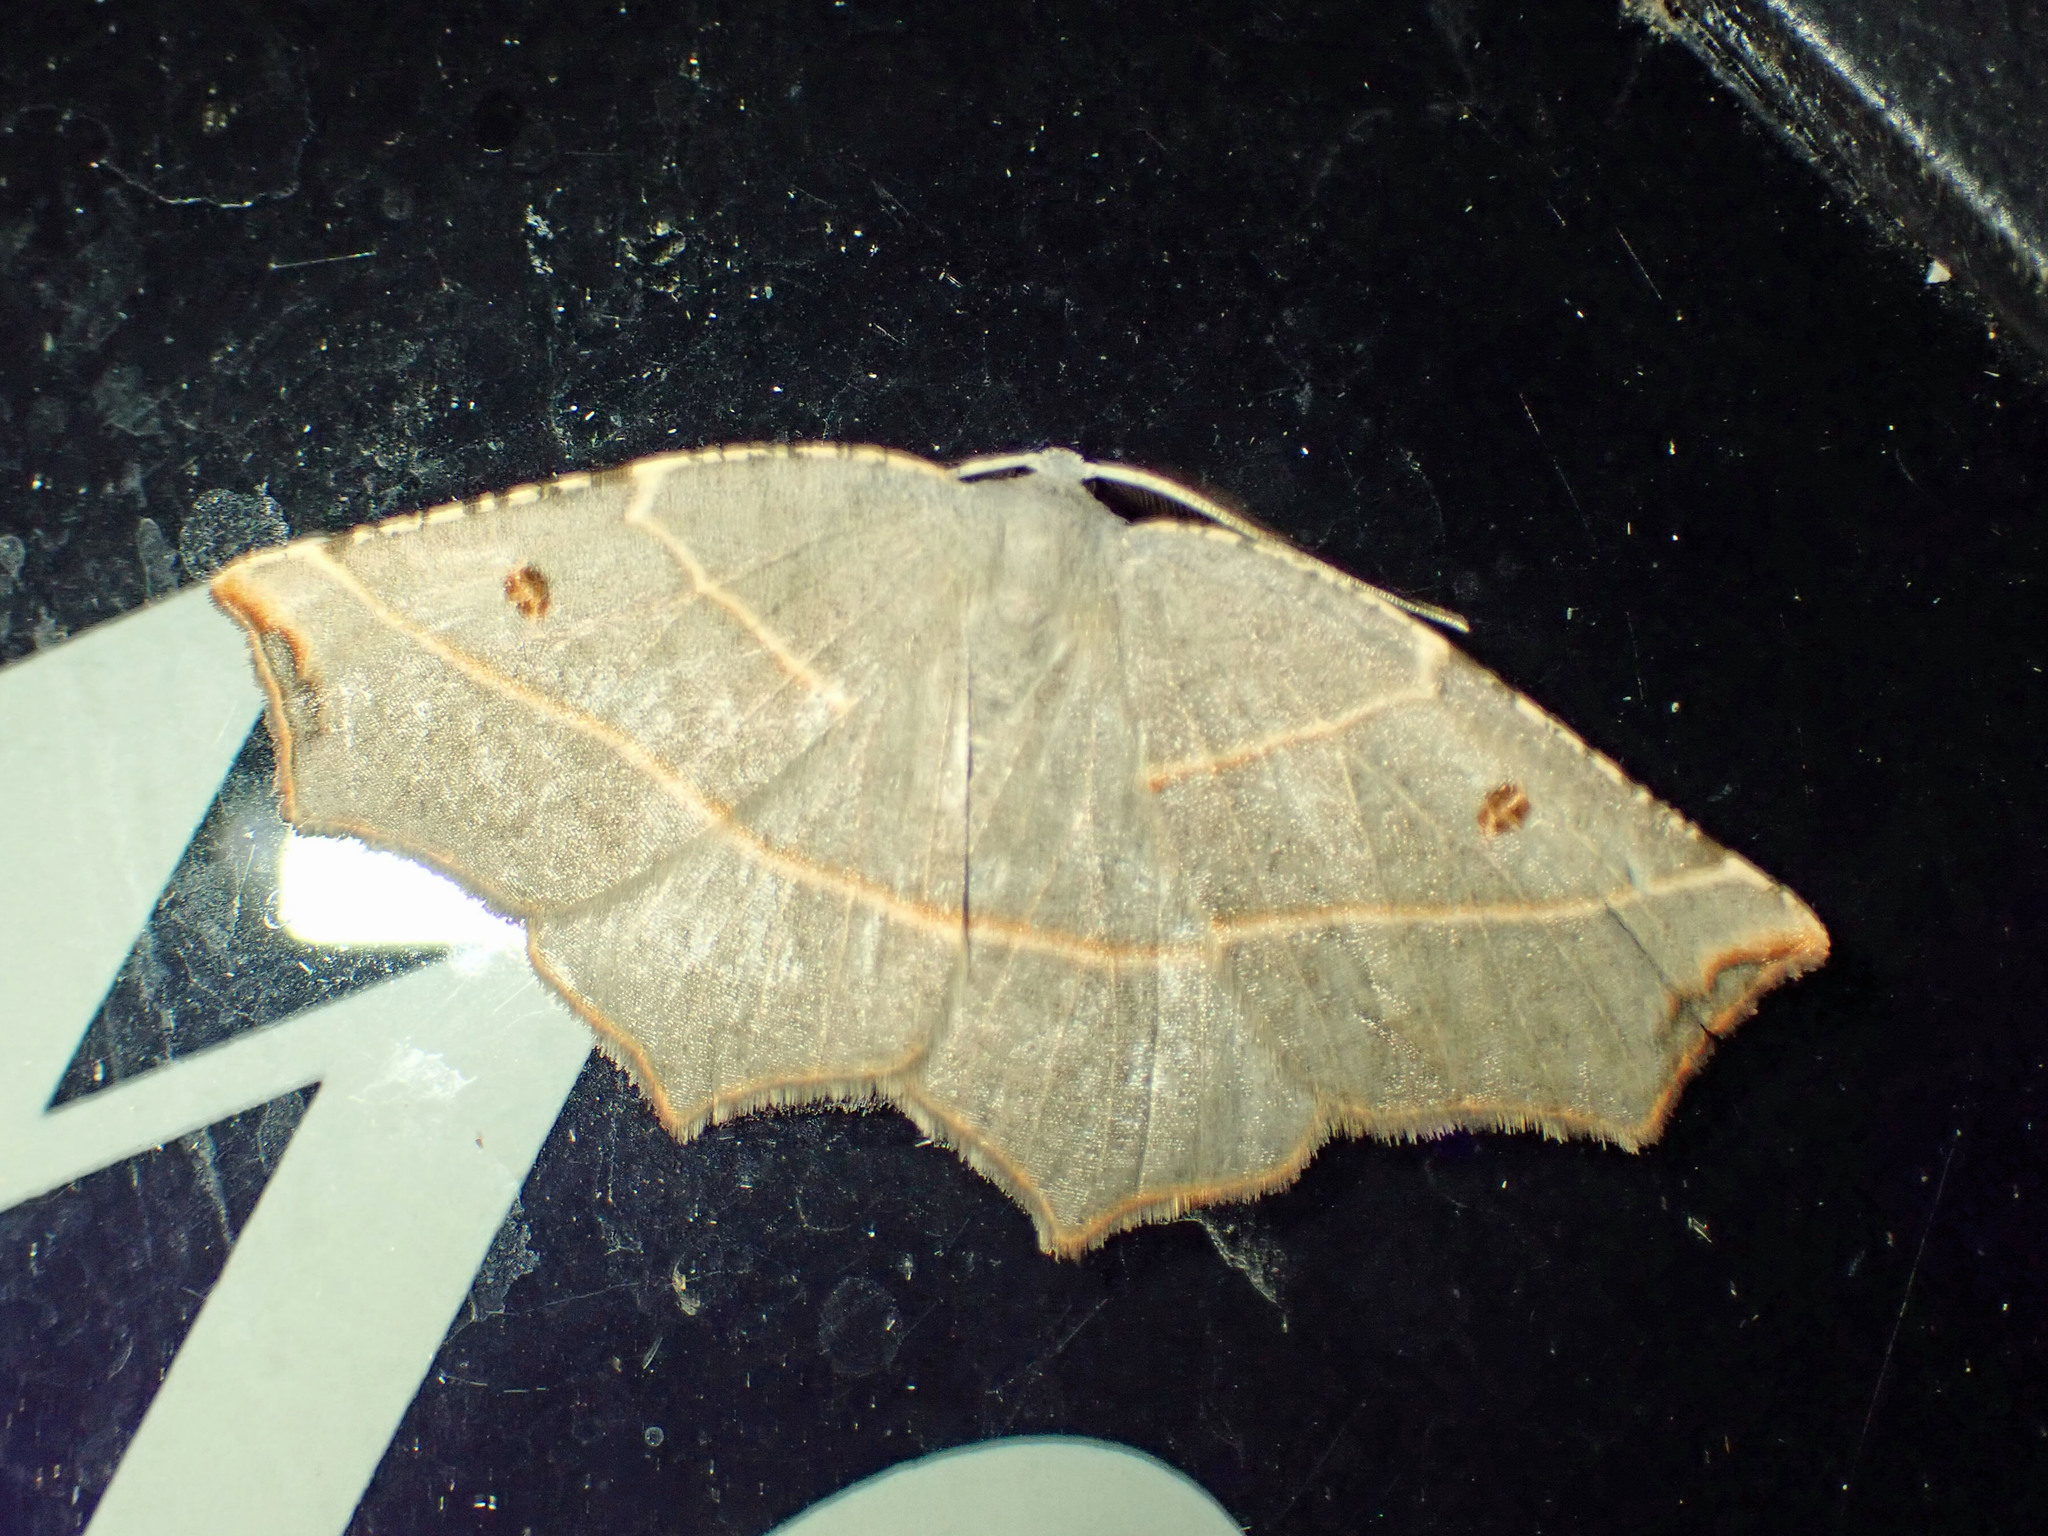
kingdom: Animalia
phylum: Arthropoda
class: Insecta
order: Lepidoptera
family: Geometridae
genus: Metanema
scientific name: Metanema inatomaria
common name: Pale metanema
